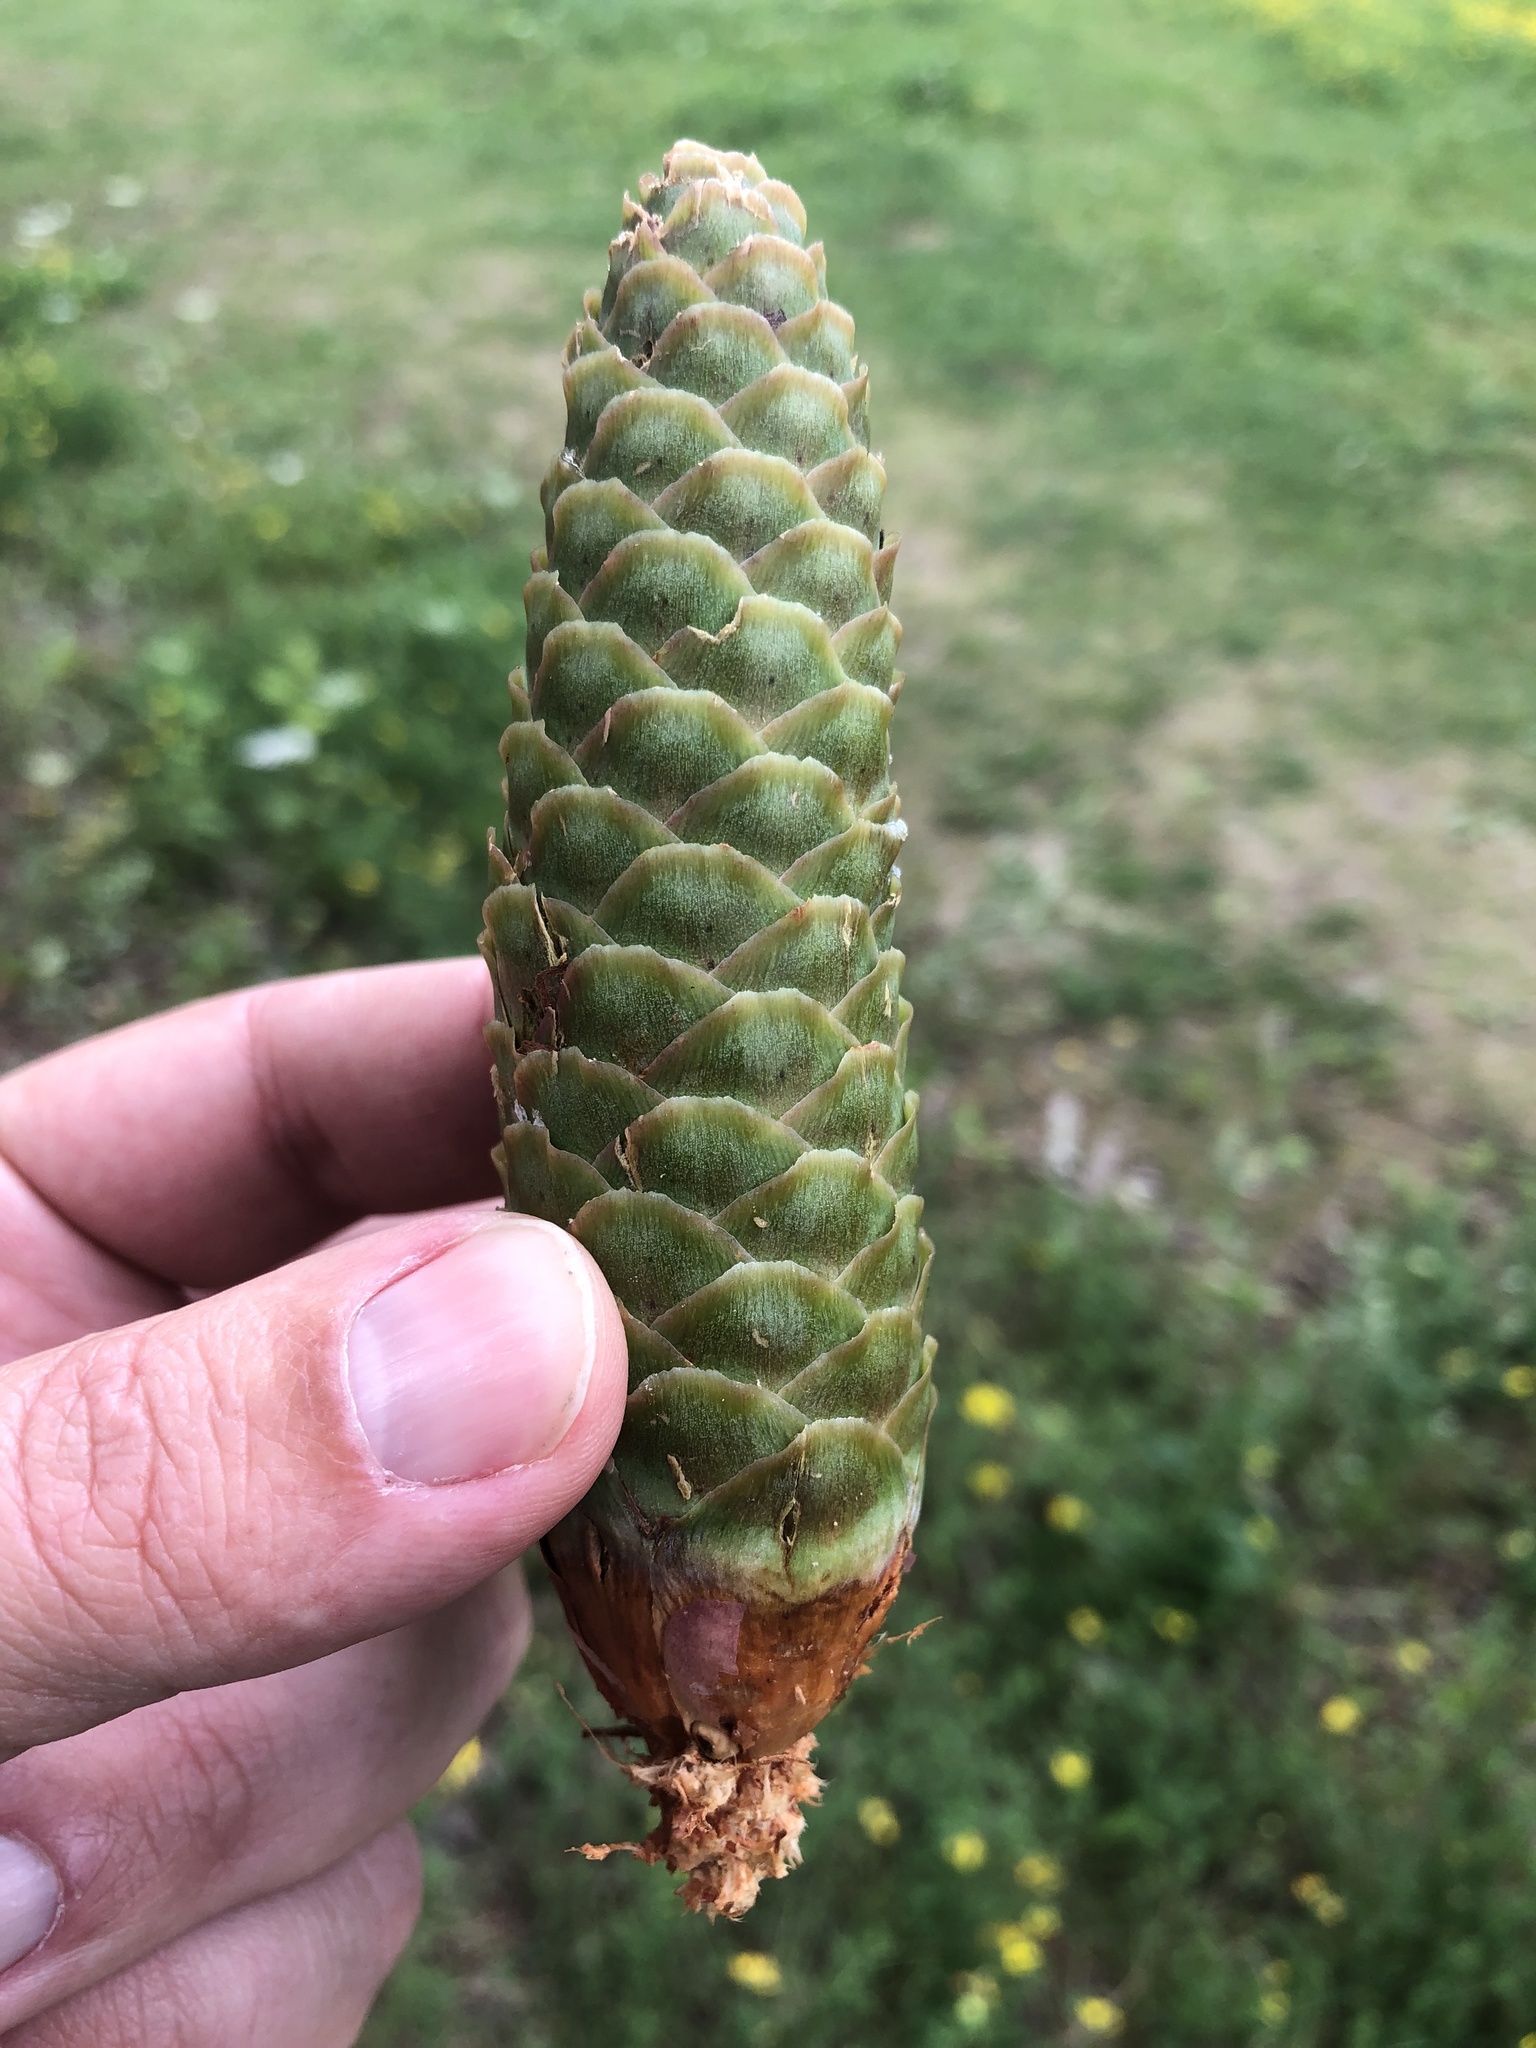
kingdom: Plantae
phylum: Tracheophyta
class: Pinopsida
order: Pinales
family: Pinaceae
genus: Picea
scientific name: Picea abies
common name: Norway spruce
